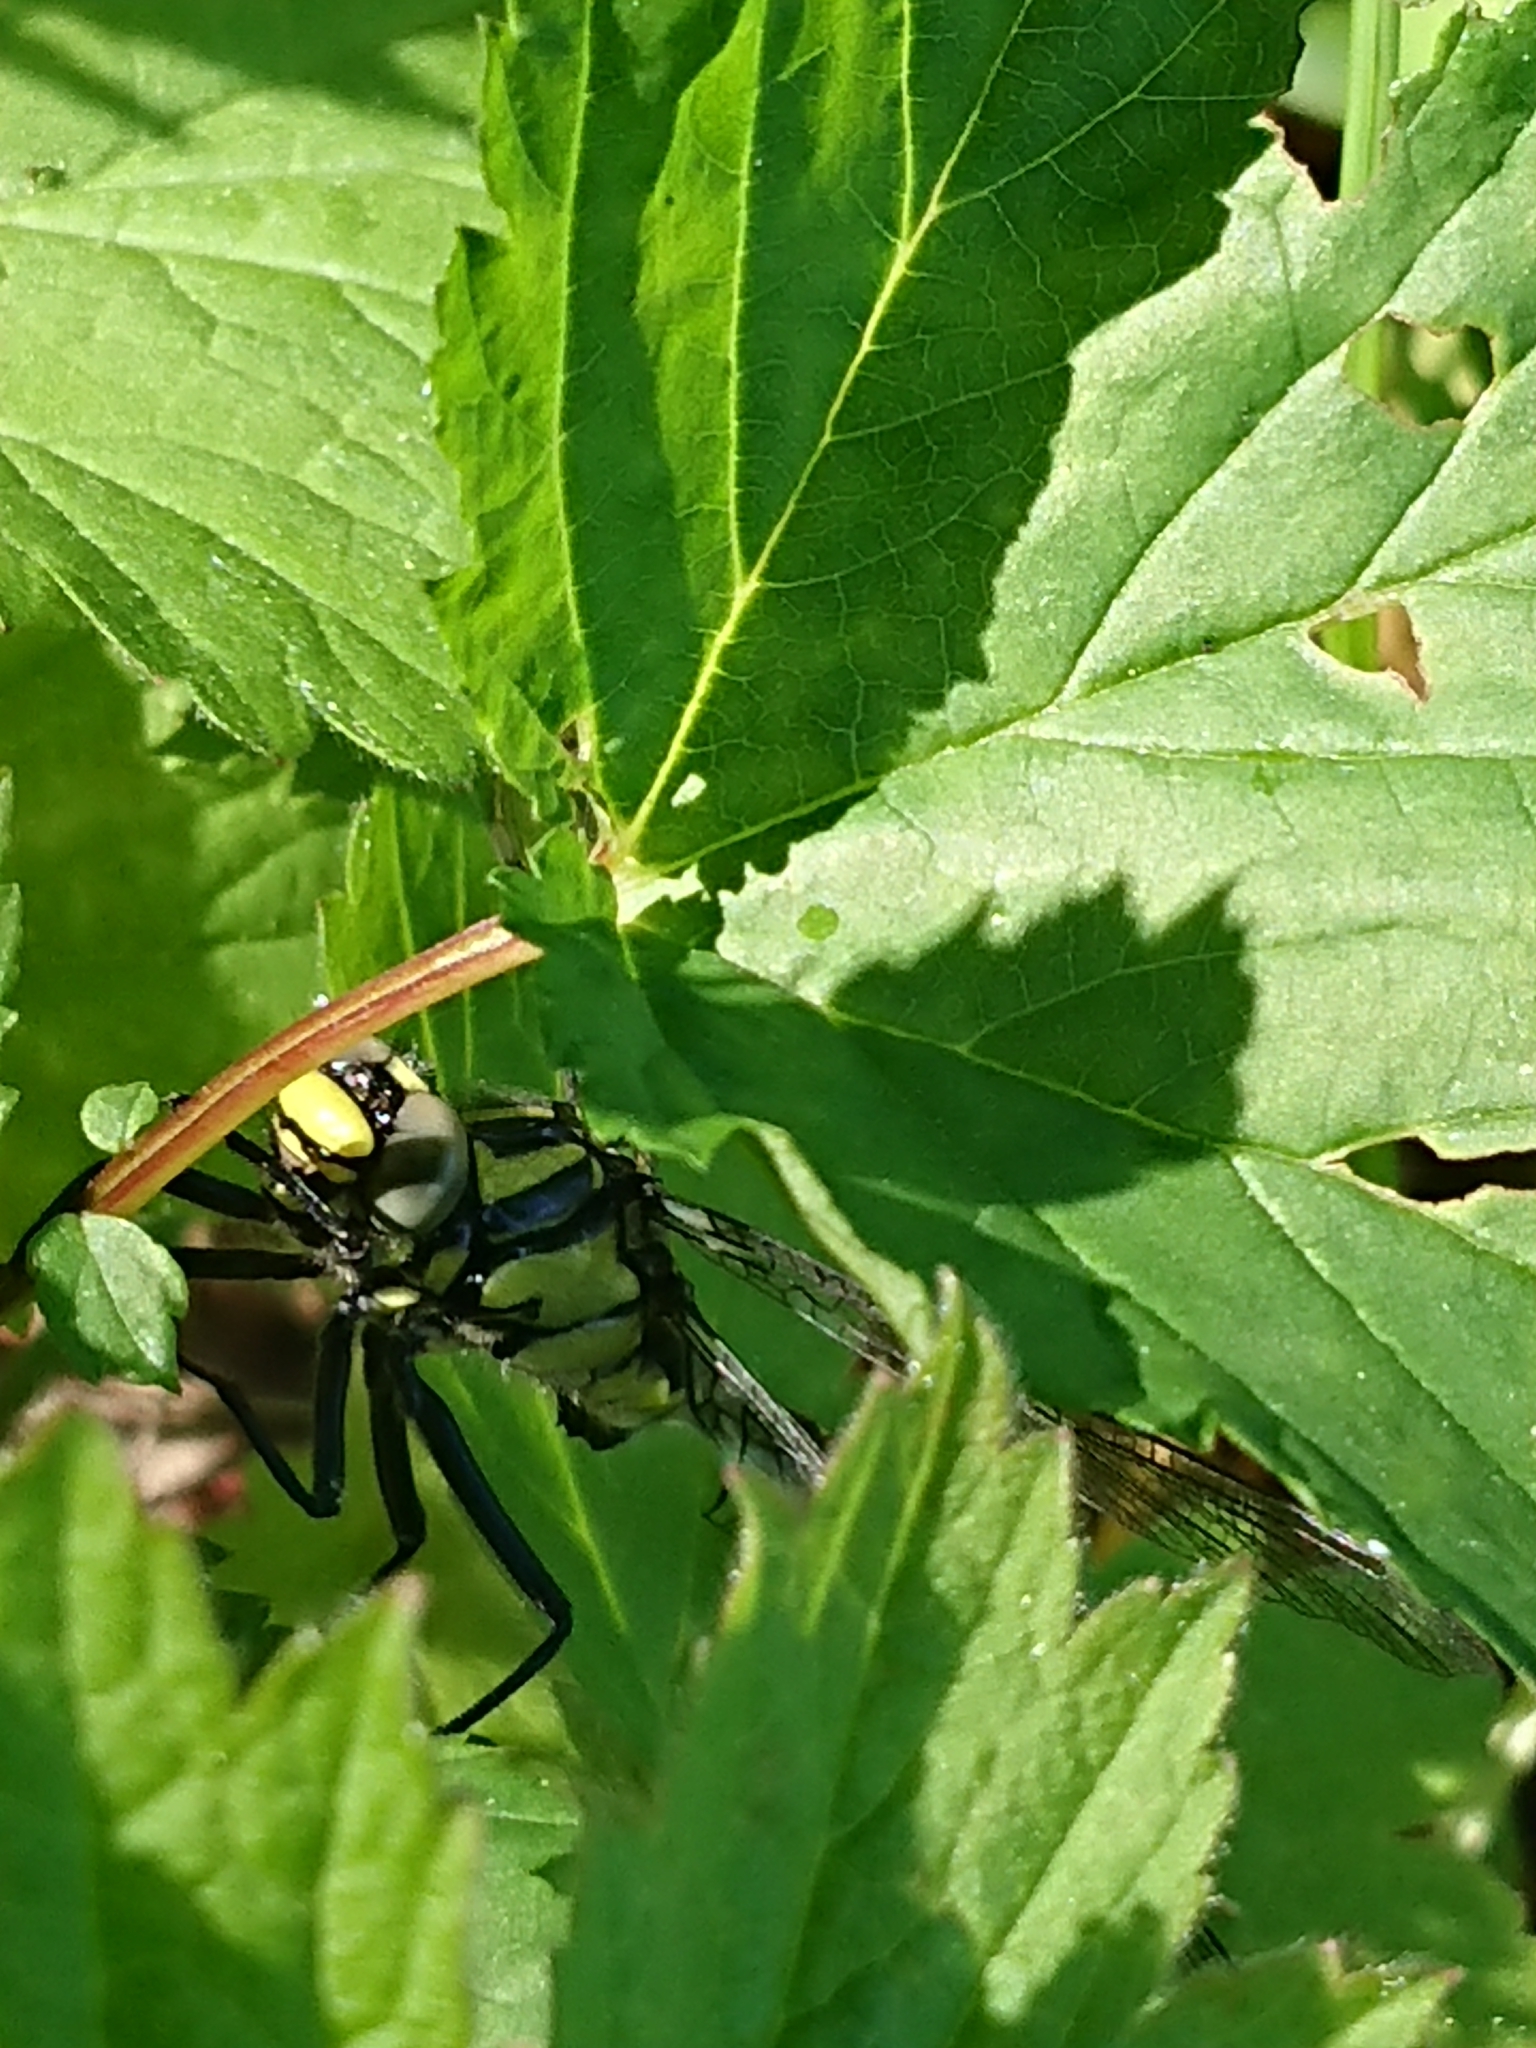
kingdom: Animalia
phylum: Arthropoda
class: Insecta
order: Odonata
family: Gomphidae
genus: Gomphus
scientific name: Gomphus vulgatissimus
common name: Club-tailed dragonfly
